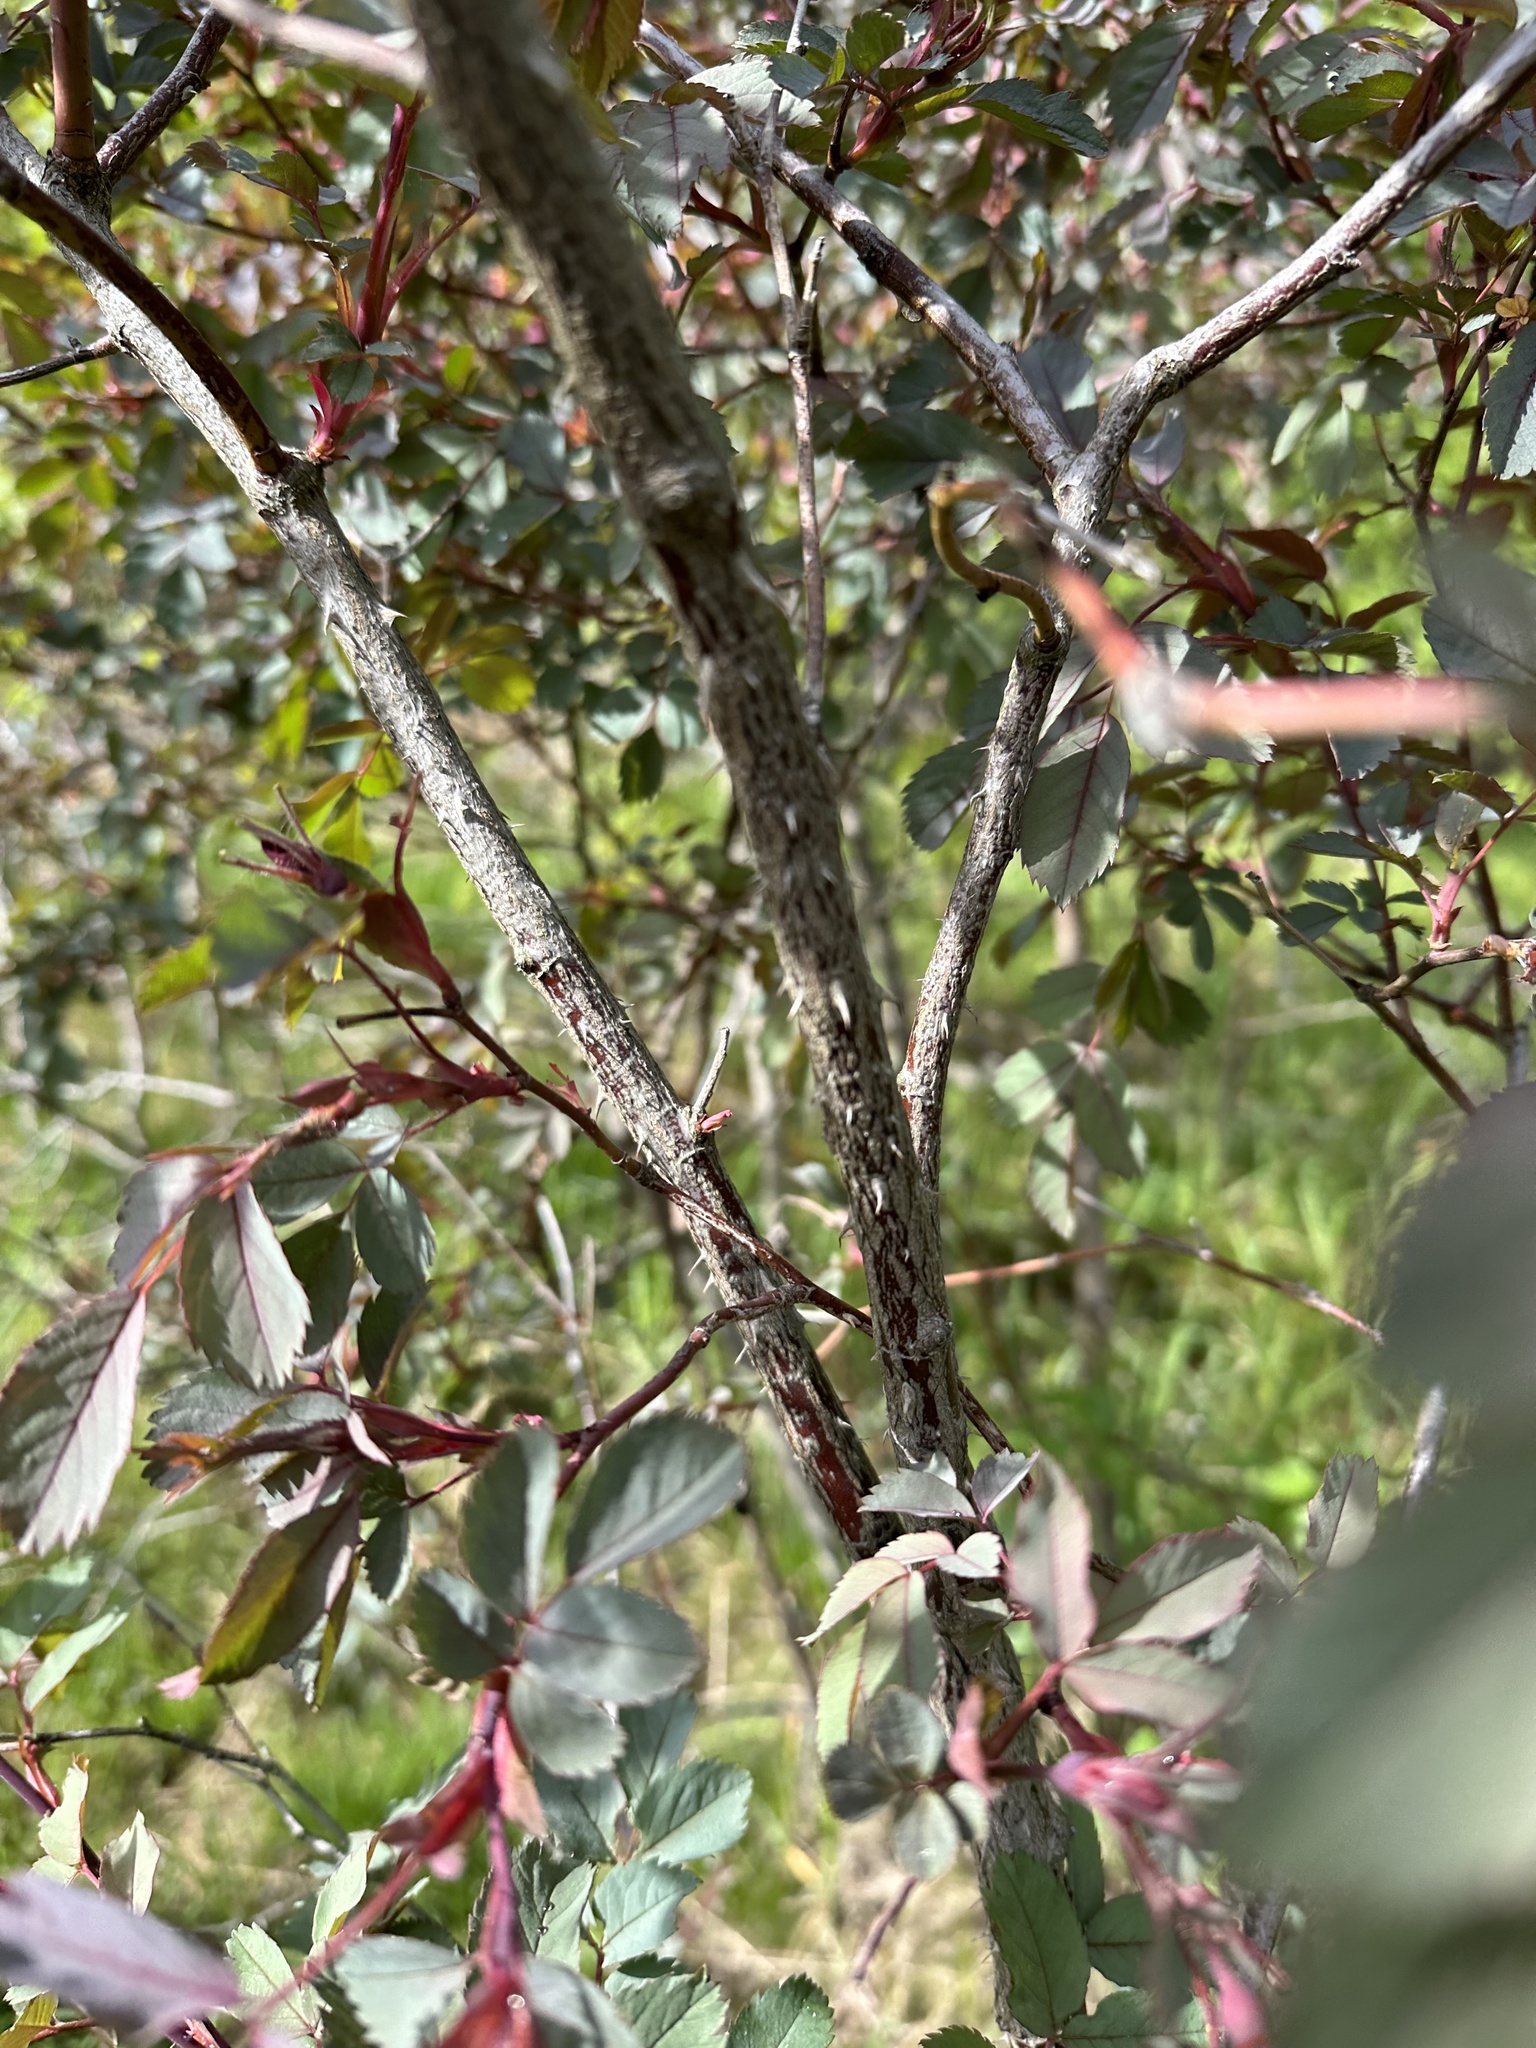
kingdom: Plantae
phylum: Tracheophyta
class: Magnoliopsida
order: Rosales
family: Rosaceae
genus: Rosa
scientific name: Rosa glauca
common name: Redleaf rose
